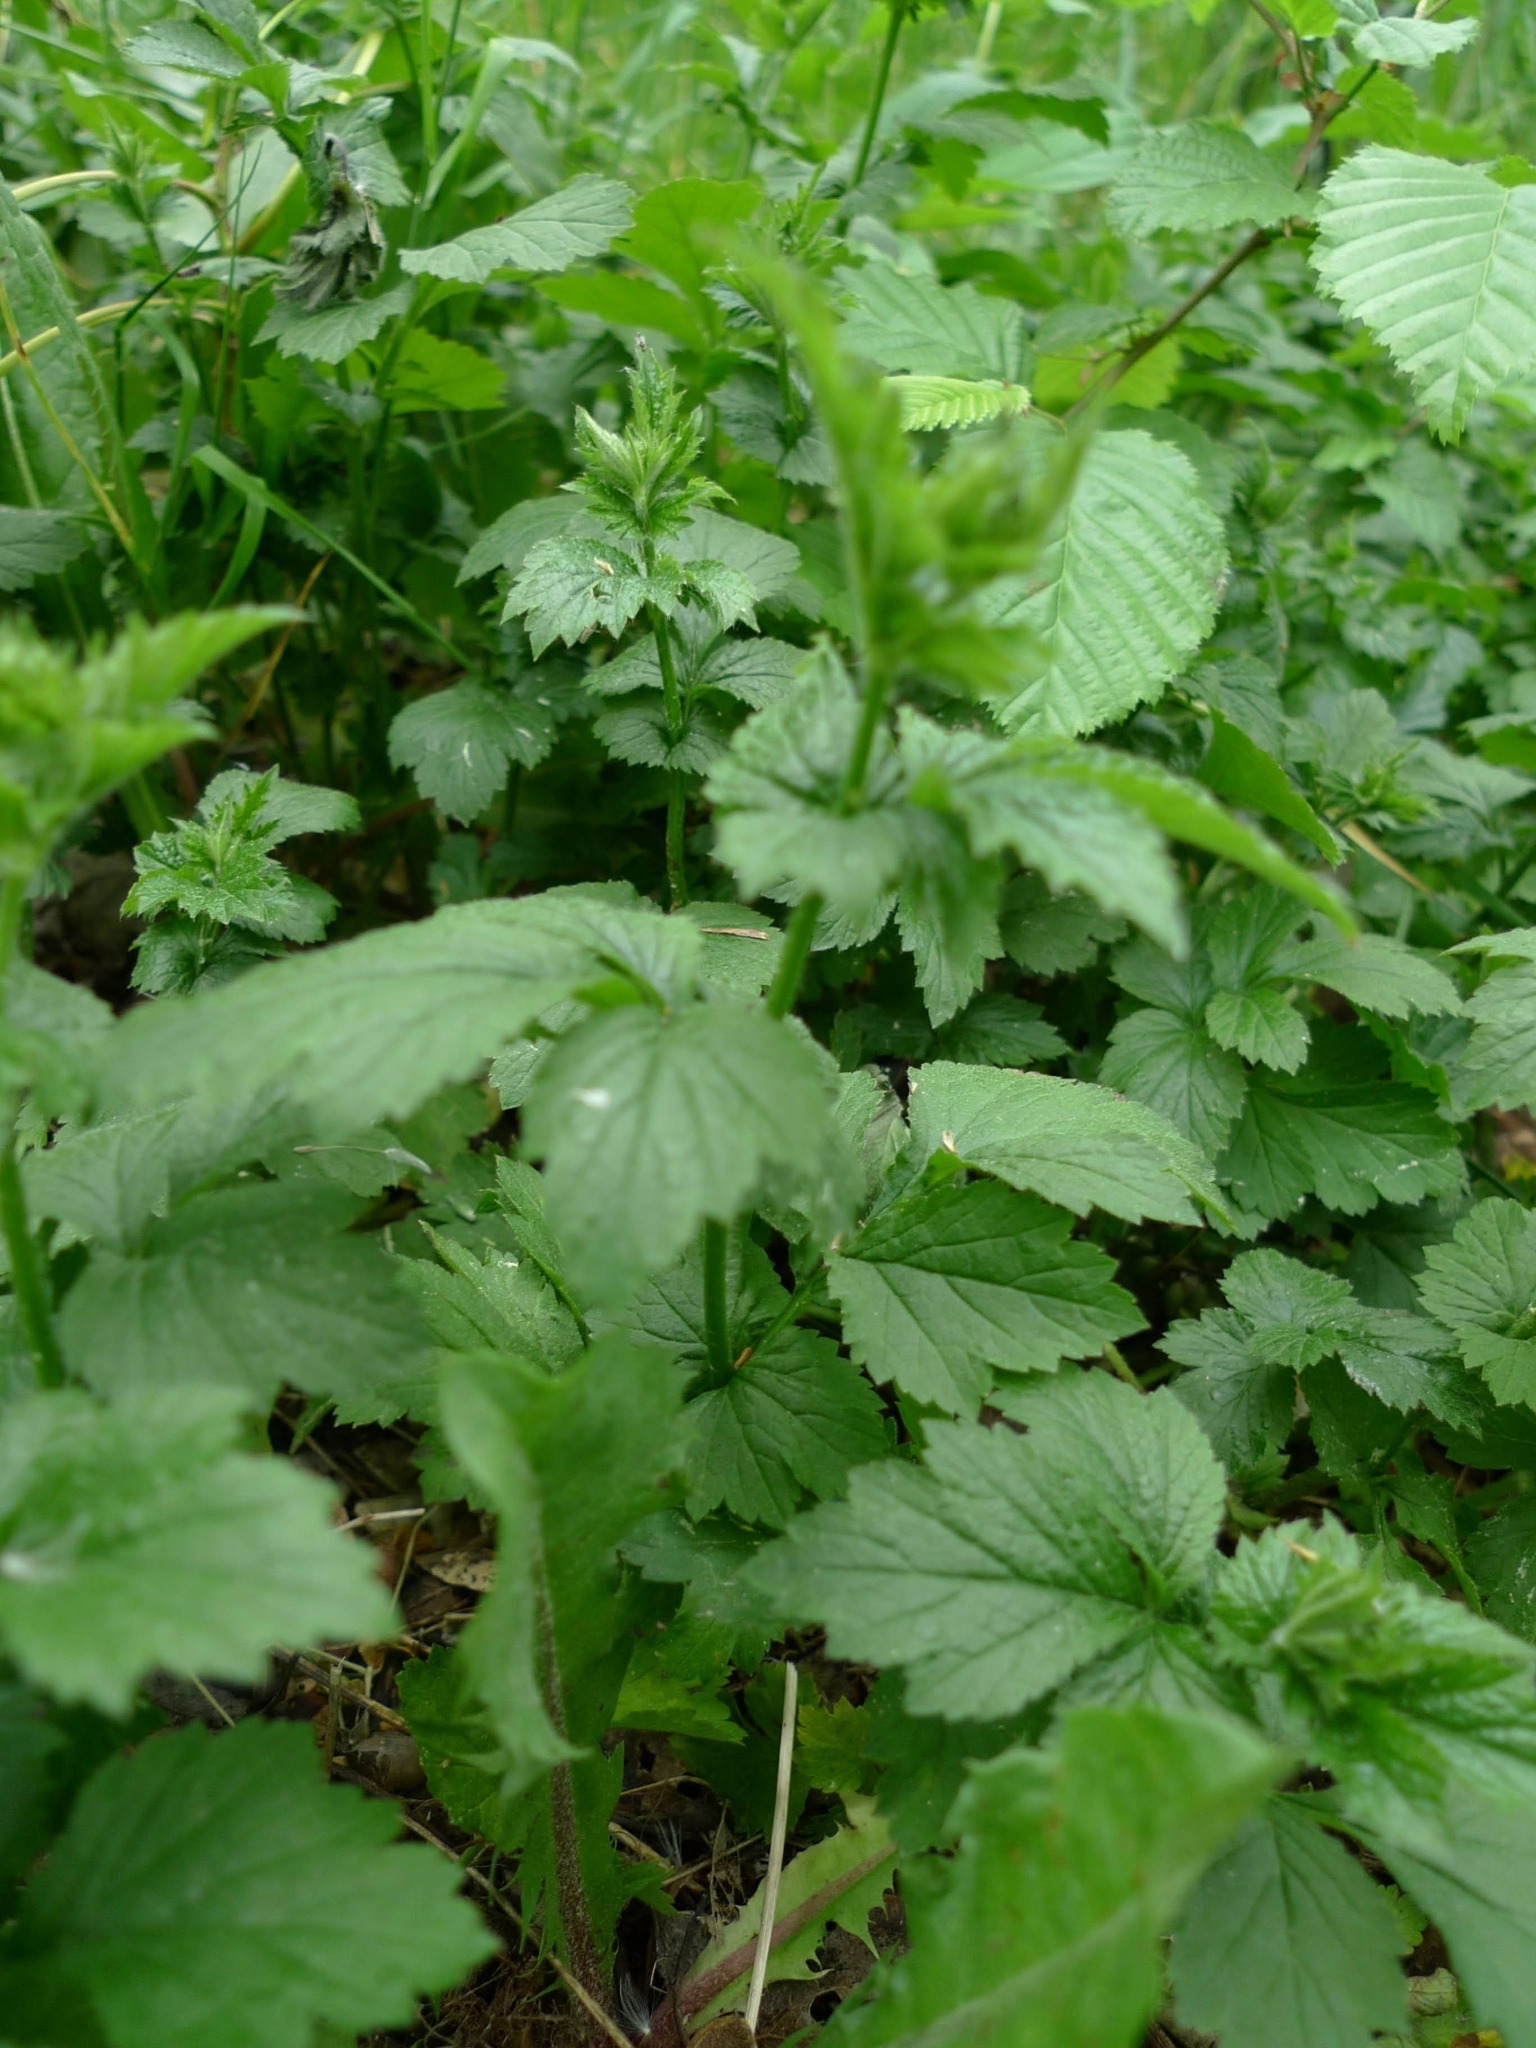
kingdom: Plantae
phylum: Tracheophyta
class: Magnoliopsida
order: Rosales
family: Rosaceae
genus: Geum
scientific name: Geum urbanum
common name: Wood avens
